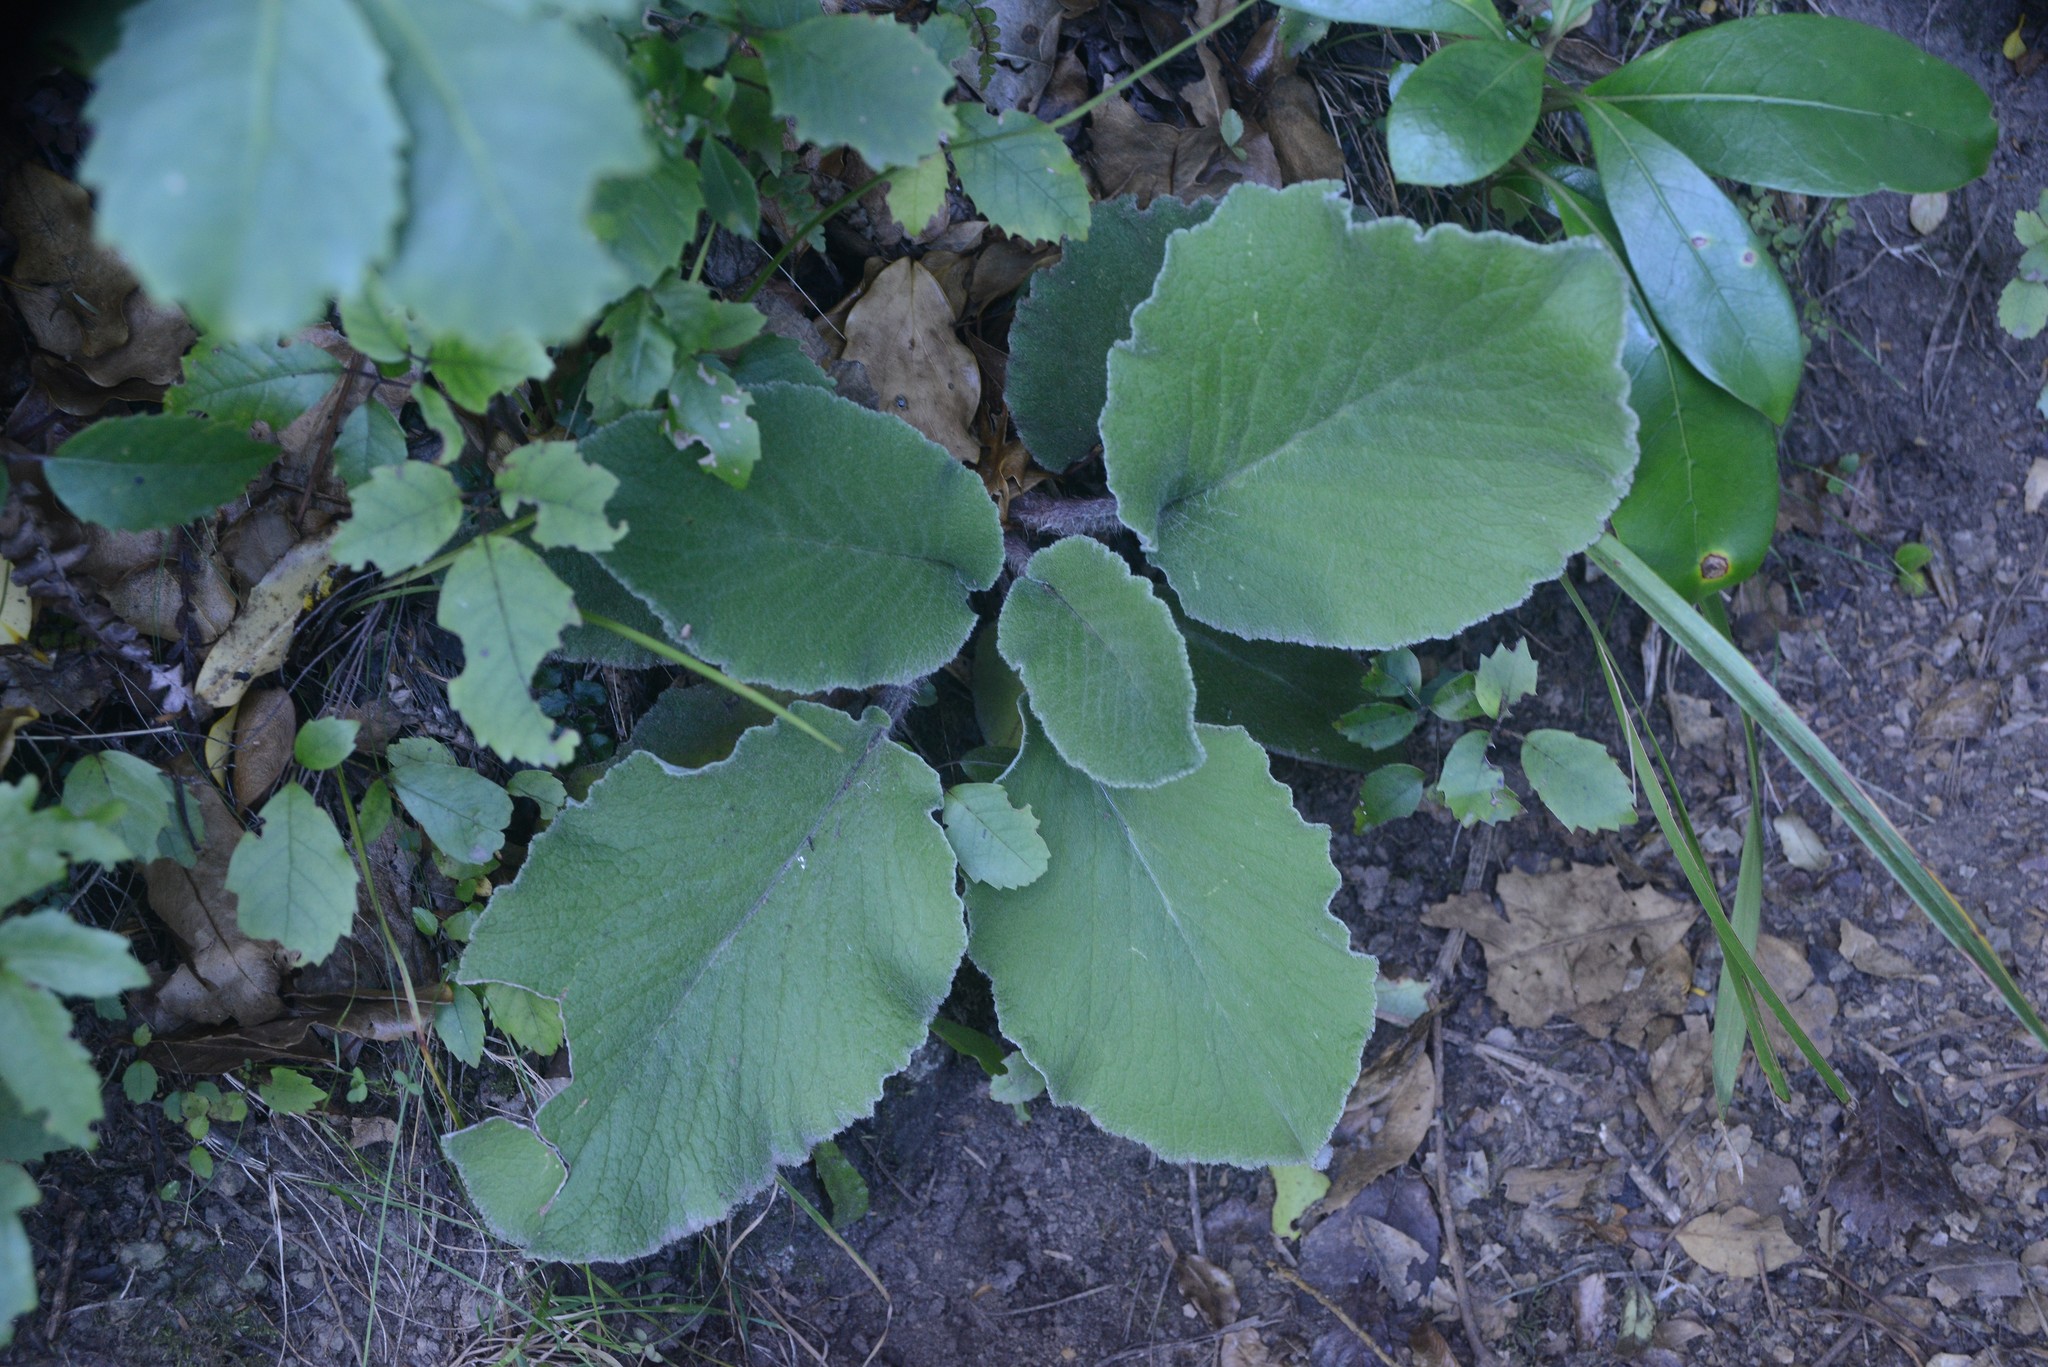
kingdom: Plantae
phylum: Tracheophyta
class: Magnoliopsida
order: Asterales
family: Asteraceae
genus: Brachyglottis
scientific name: Brachyglottis lagopus
